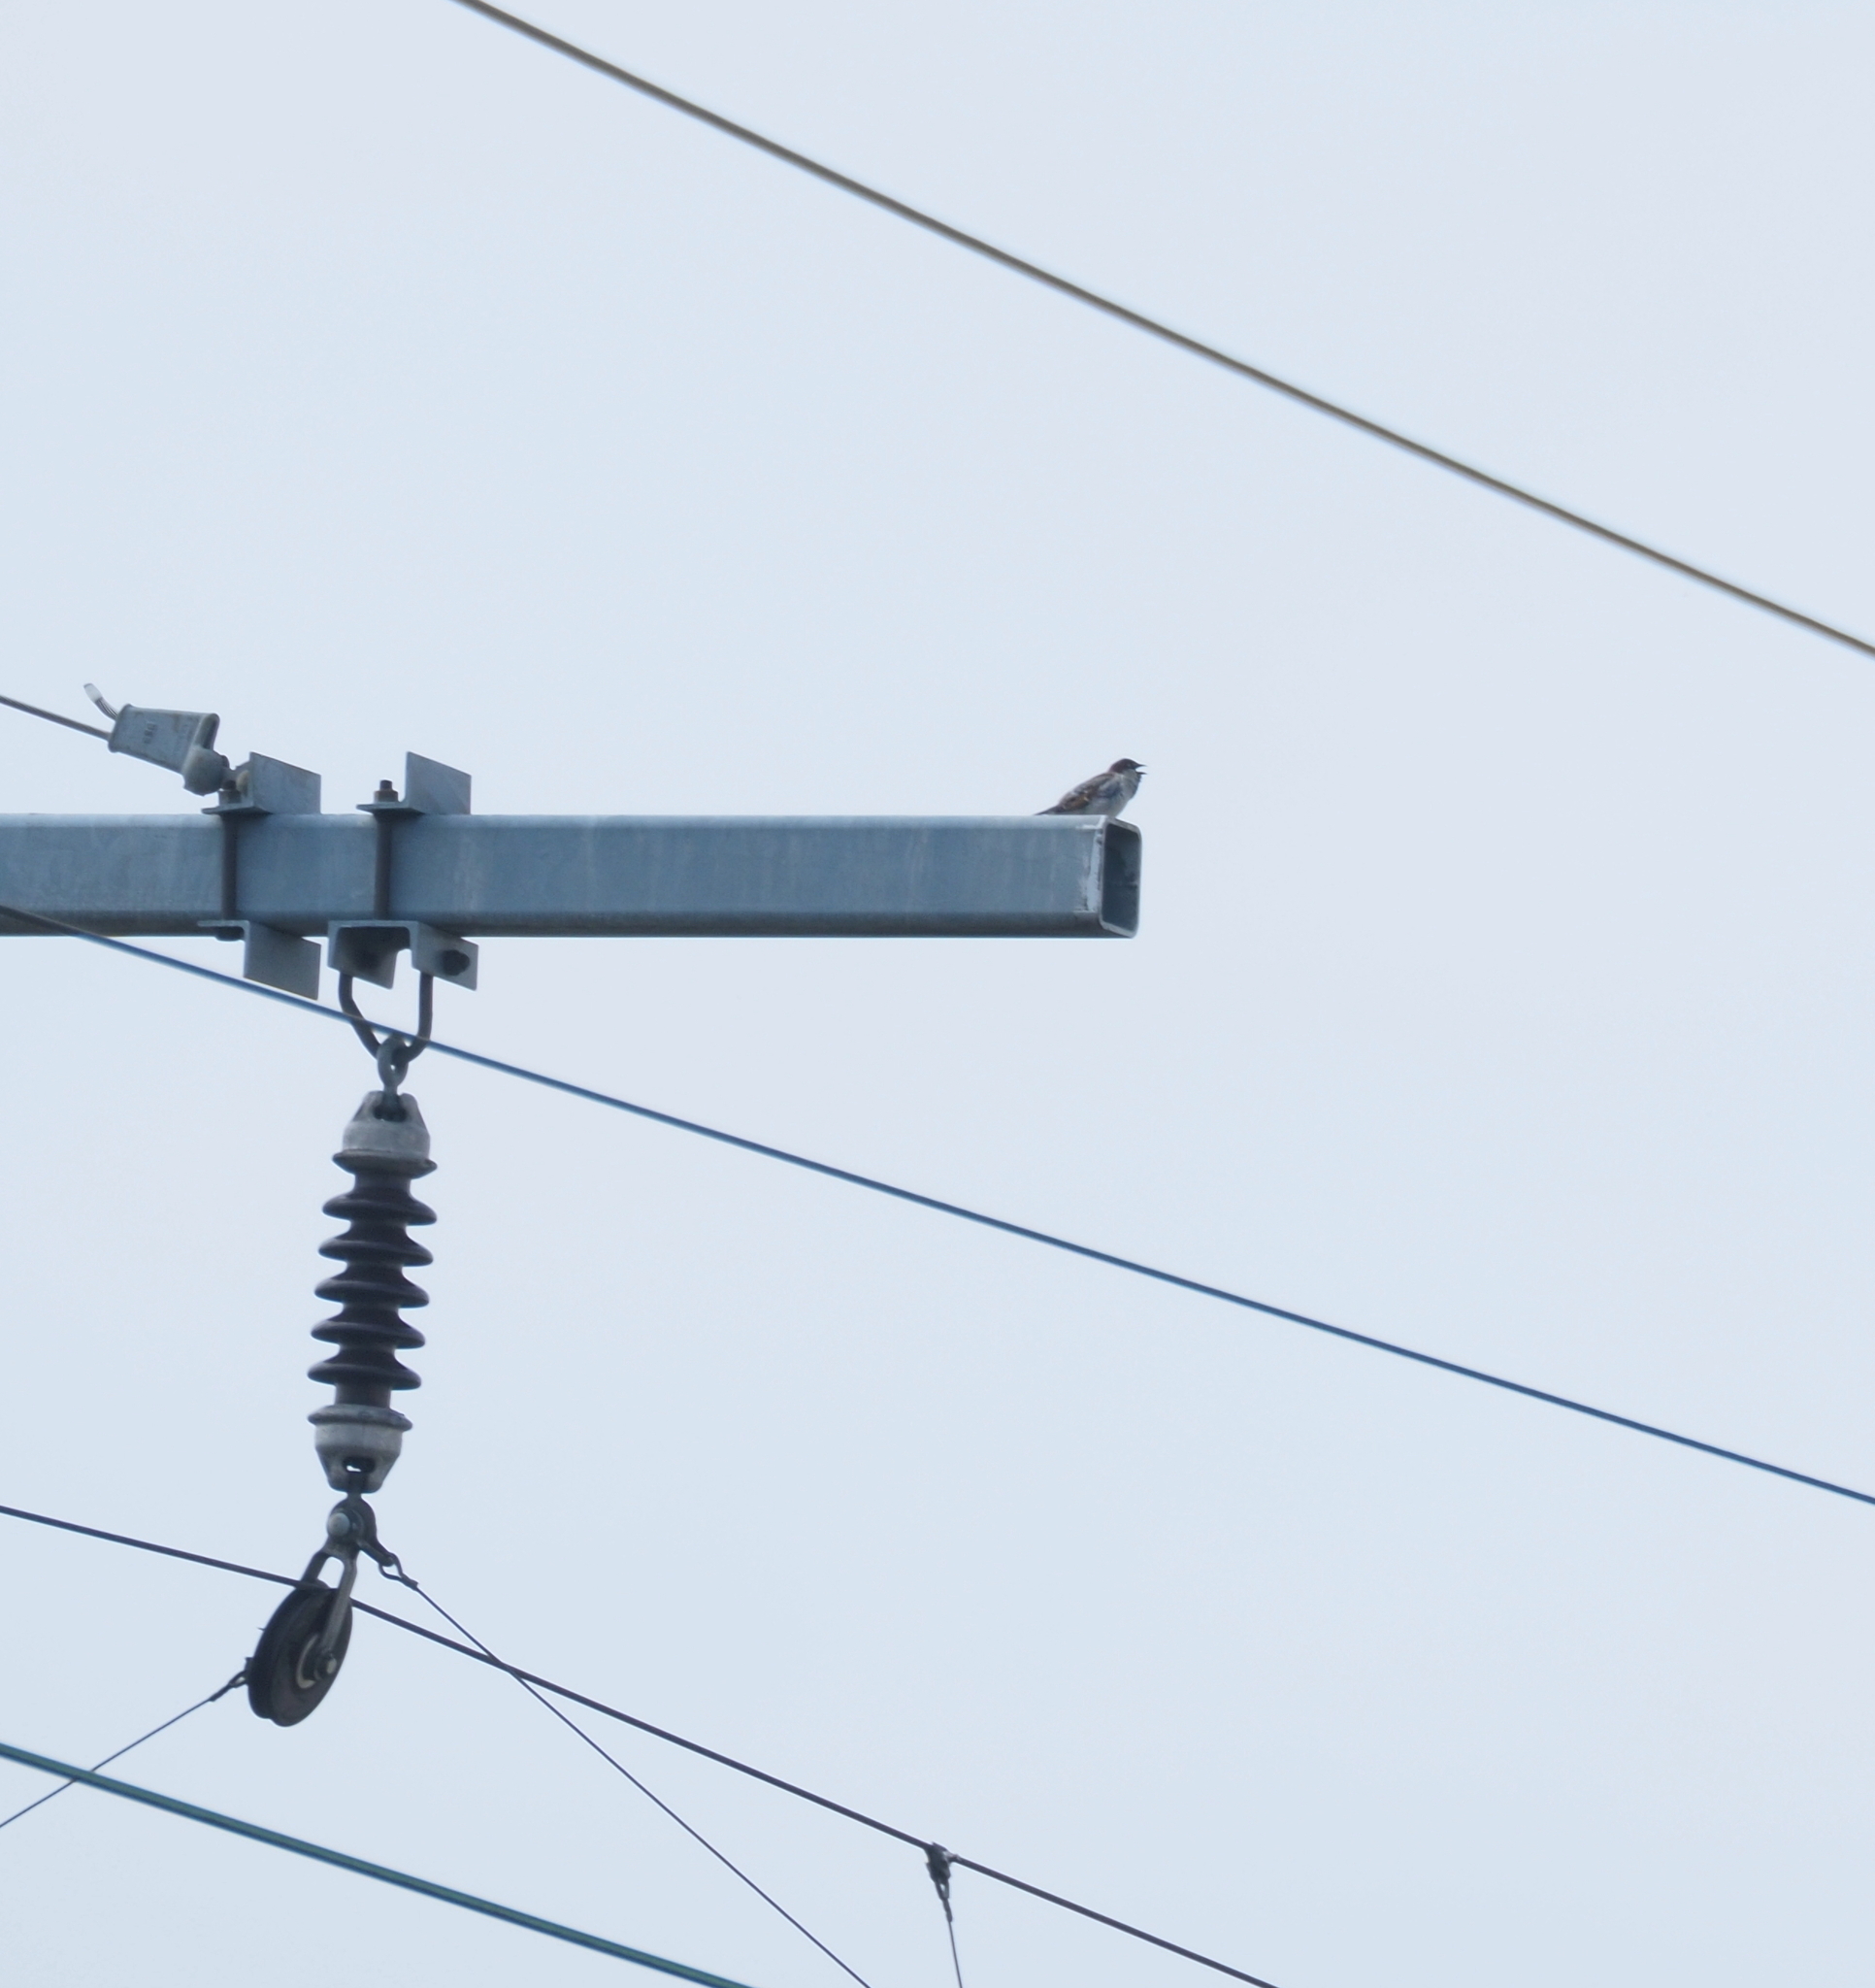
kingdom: Animalia
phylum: Chordata
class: Aves
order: Passeriformes
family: Passeridae
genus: Passer
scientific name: Passer domesticus
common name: House sparrow
